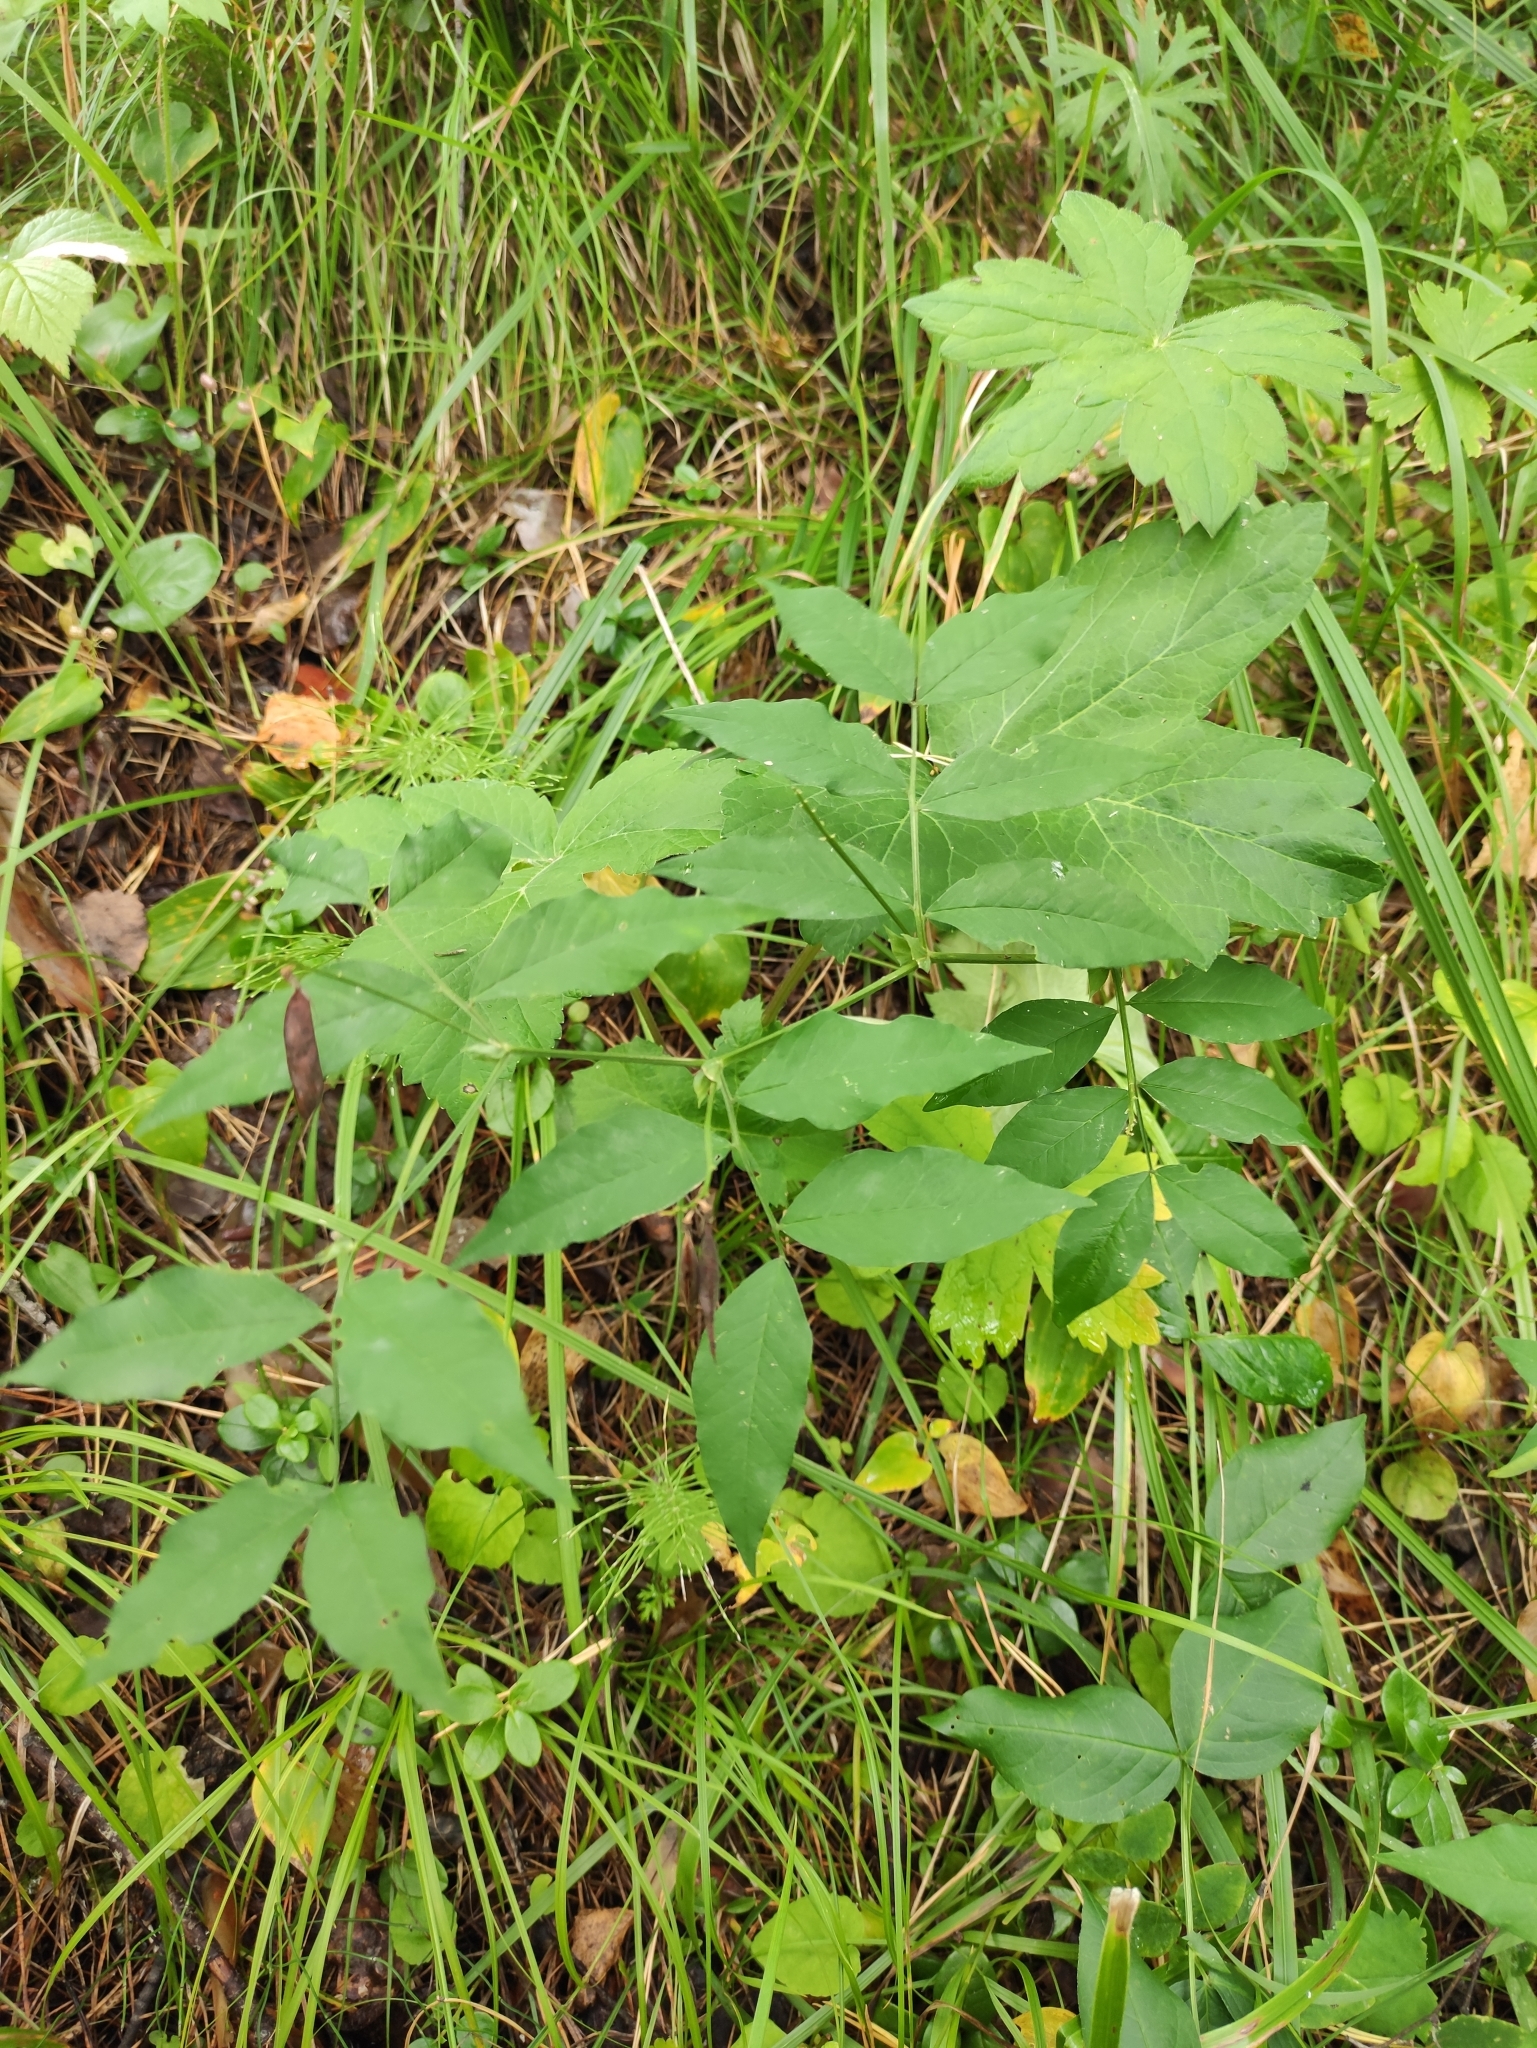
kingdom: Plantae
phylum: Tracheophyta
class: Magnoliopsida
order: Fabales
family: Fabaceae
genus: Vicia
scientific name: Vicia ramuliflora
